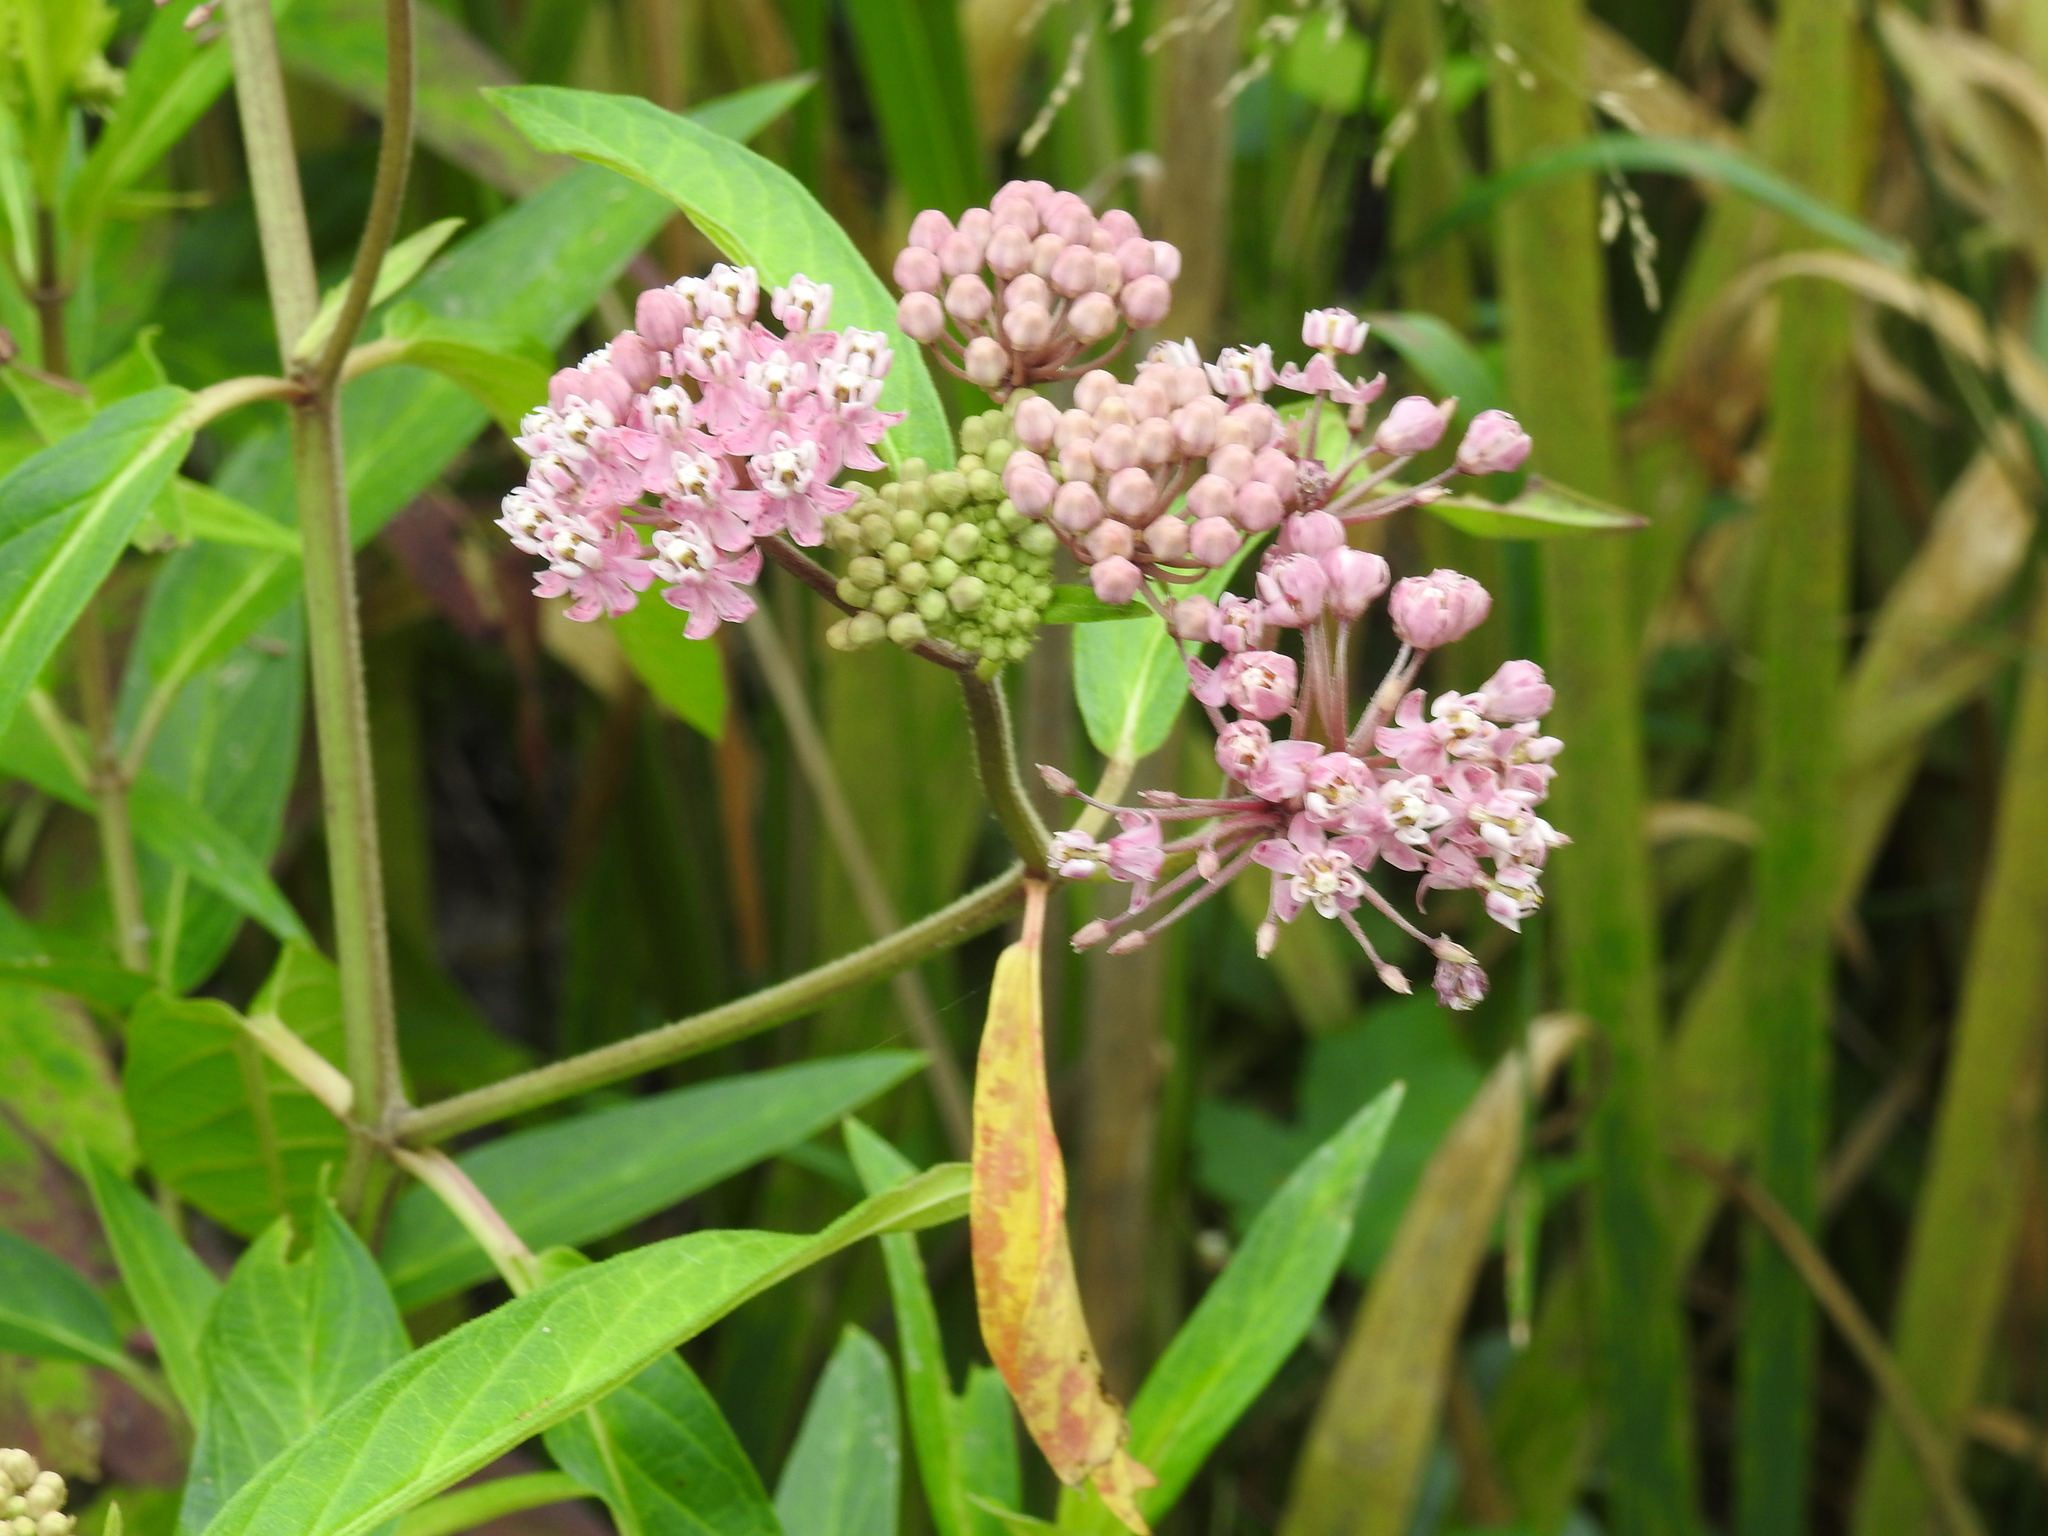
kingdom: Plantae
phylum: Tracheophyta
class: Magnoliopsida
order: Gentianales
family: Apocynaceae
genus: Asclepias
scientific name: Asclepias incarnata
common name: Swamp milkweed
